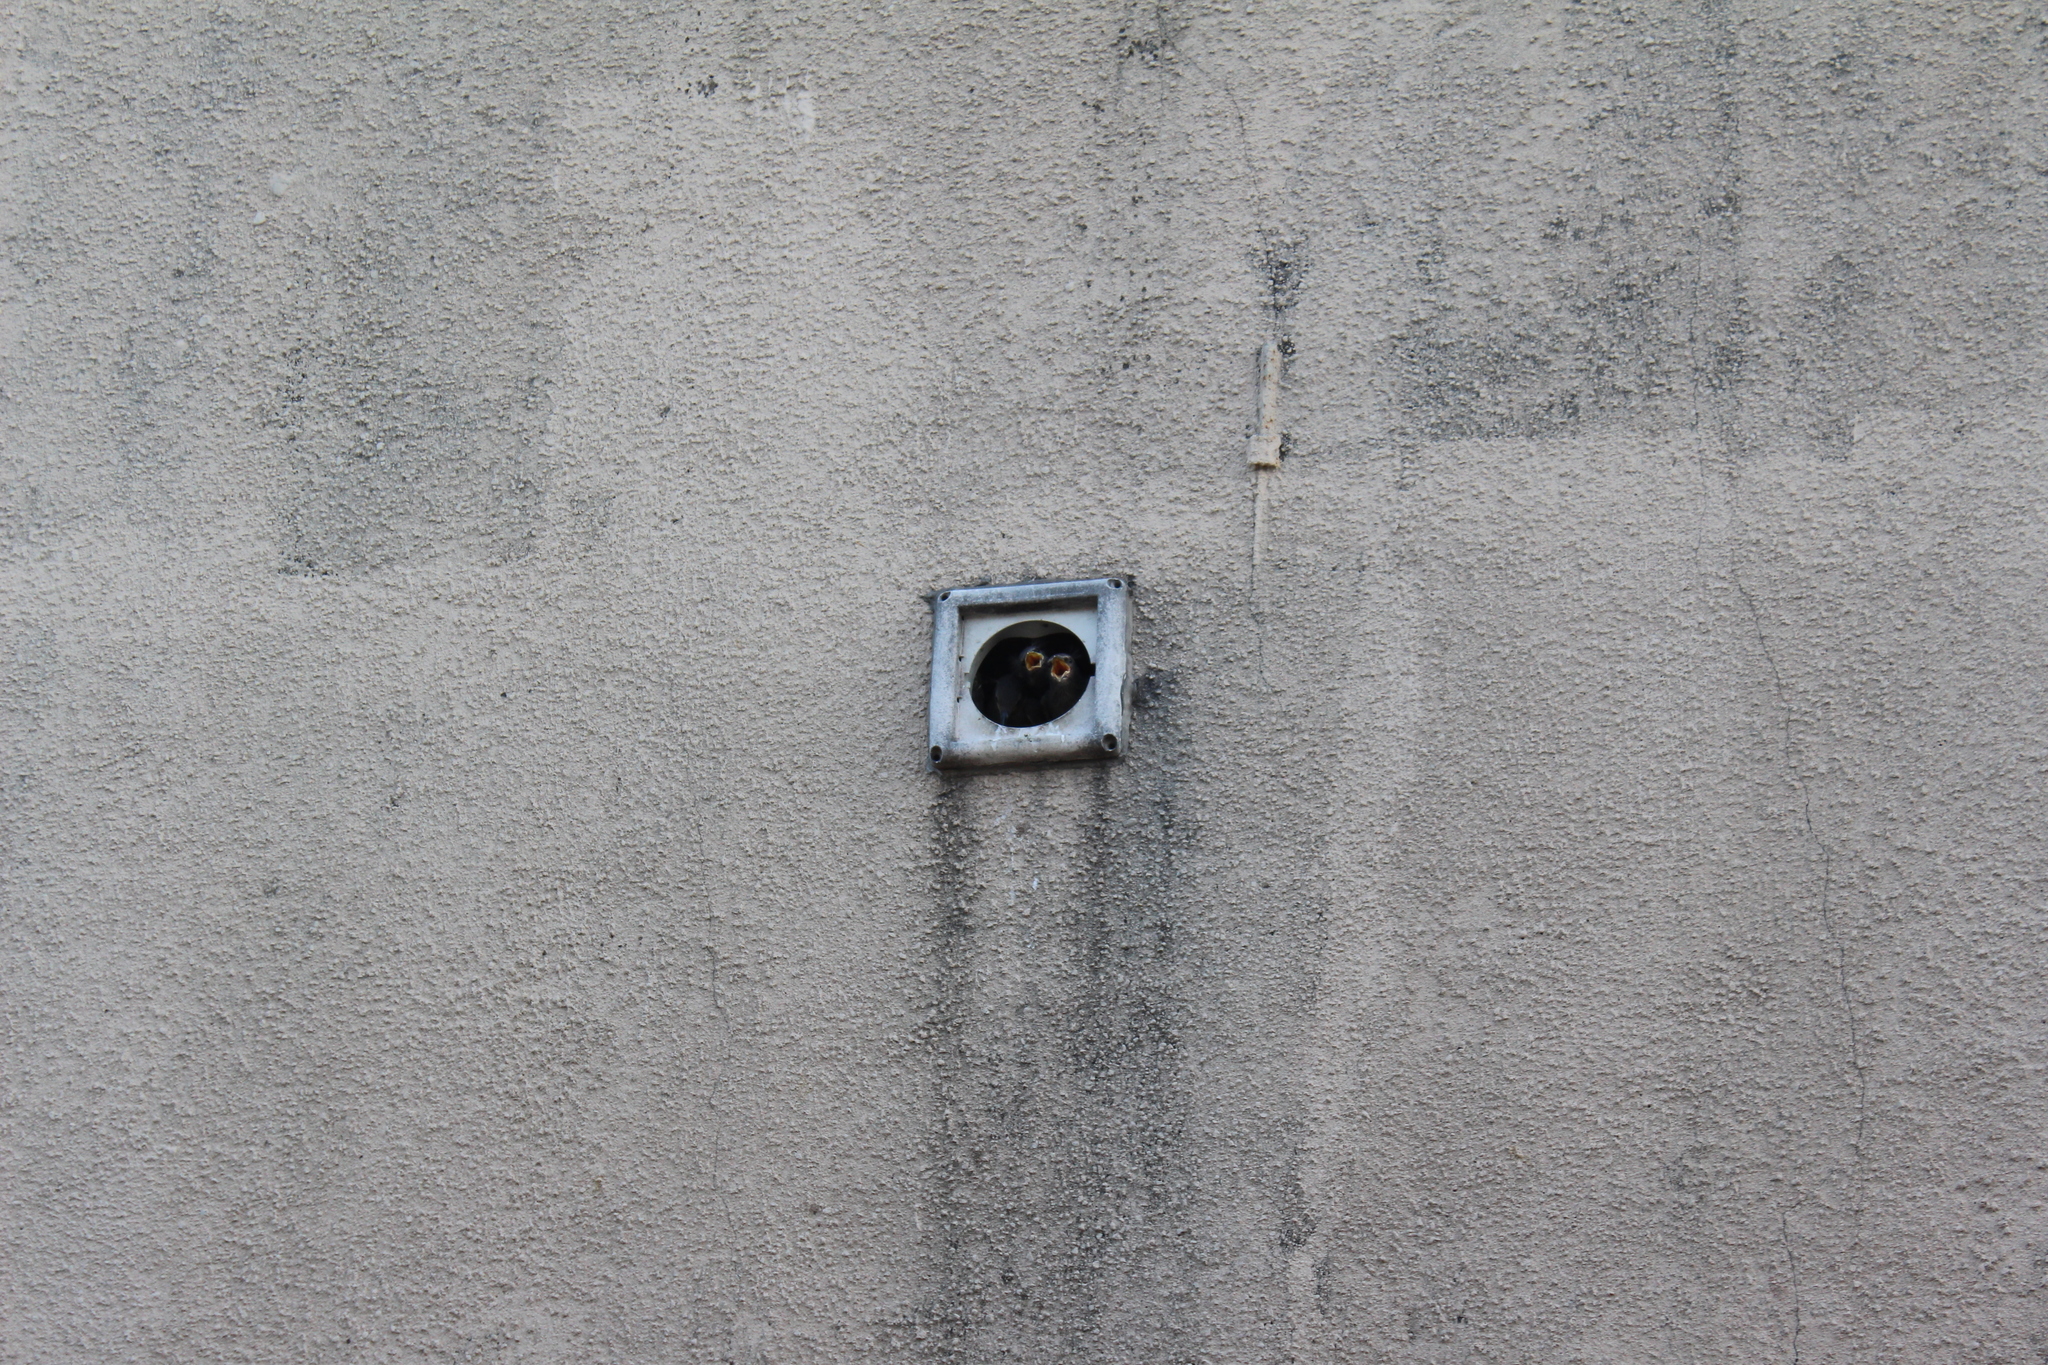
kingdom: Animalia
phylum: Chordata
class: Aves
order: Passeriformes
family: Sturnidae
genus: Sturnus
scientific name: Sturnus vulgaris
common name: Common starling
